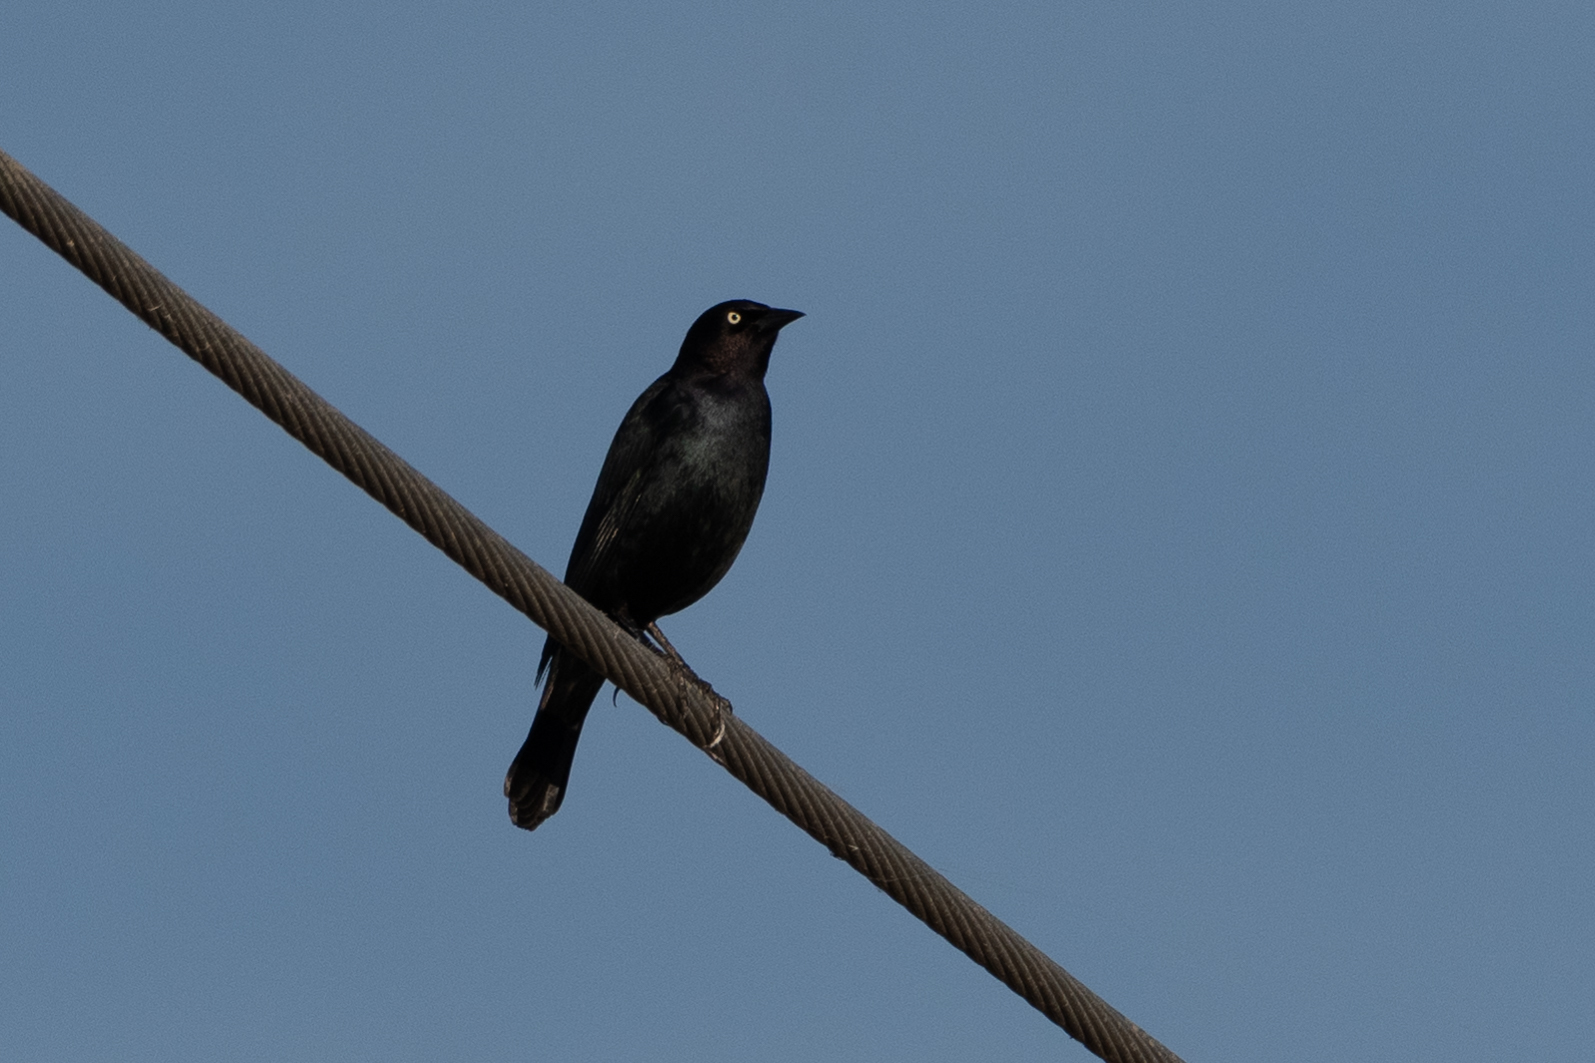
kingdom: Animalia
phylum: Chordata
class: Aves
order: Passeriformes
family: Icteridae
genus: Euphagus
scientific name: Euphagus cyanocephalus
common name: Brewer's blackbird
